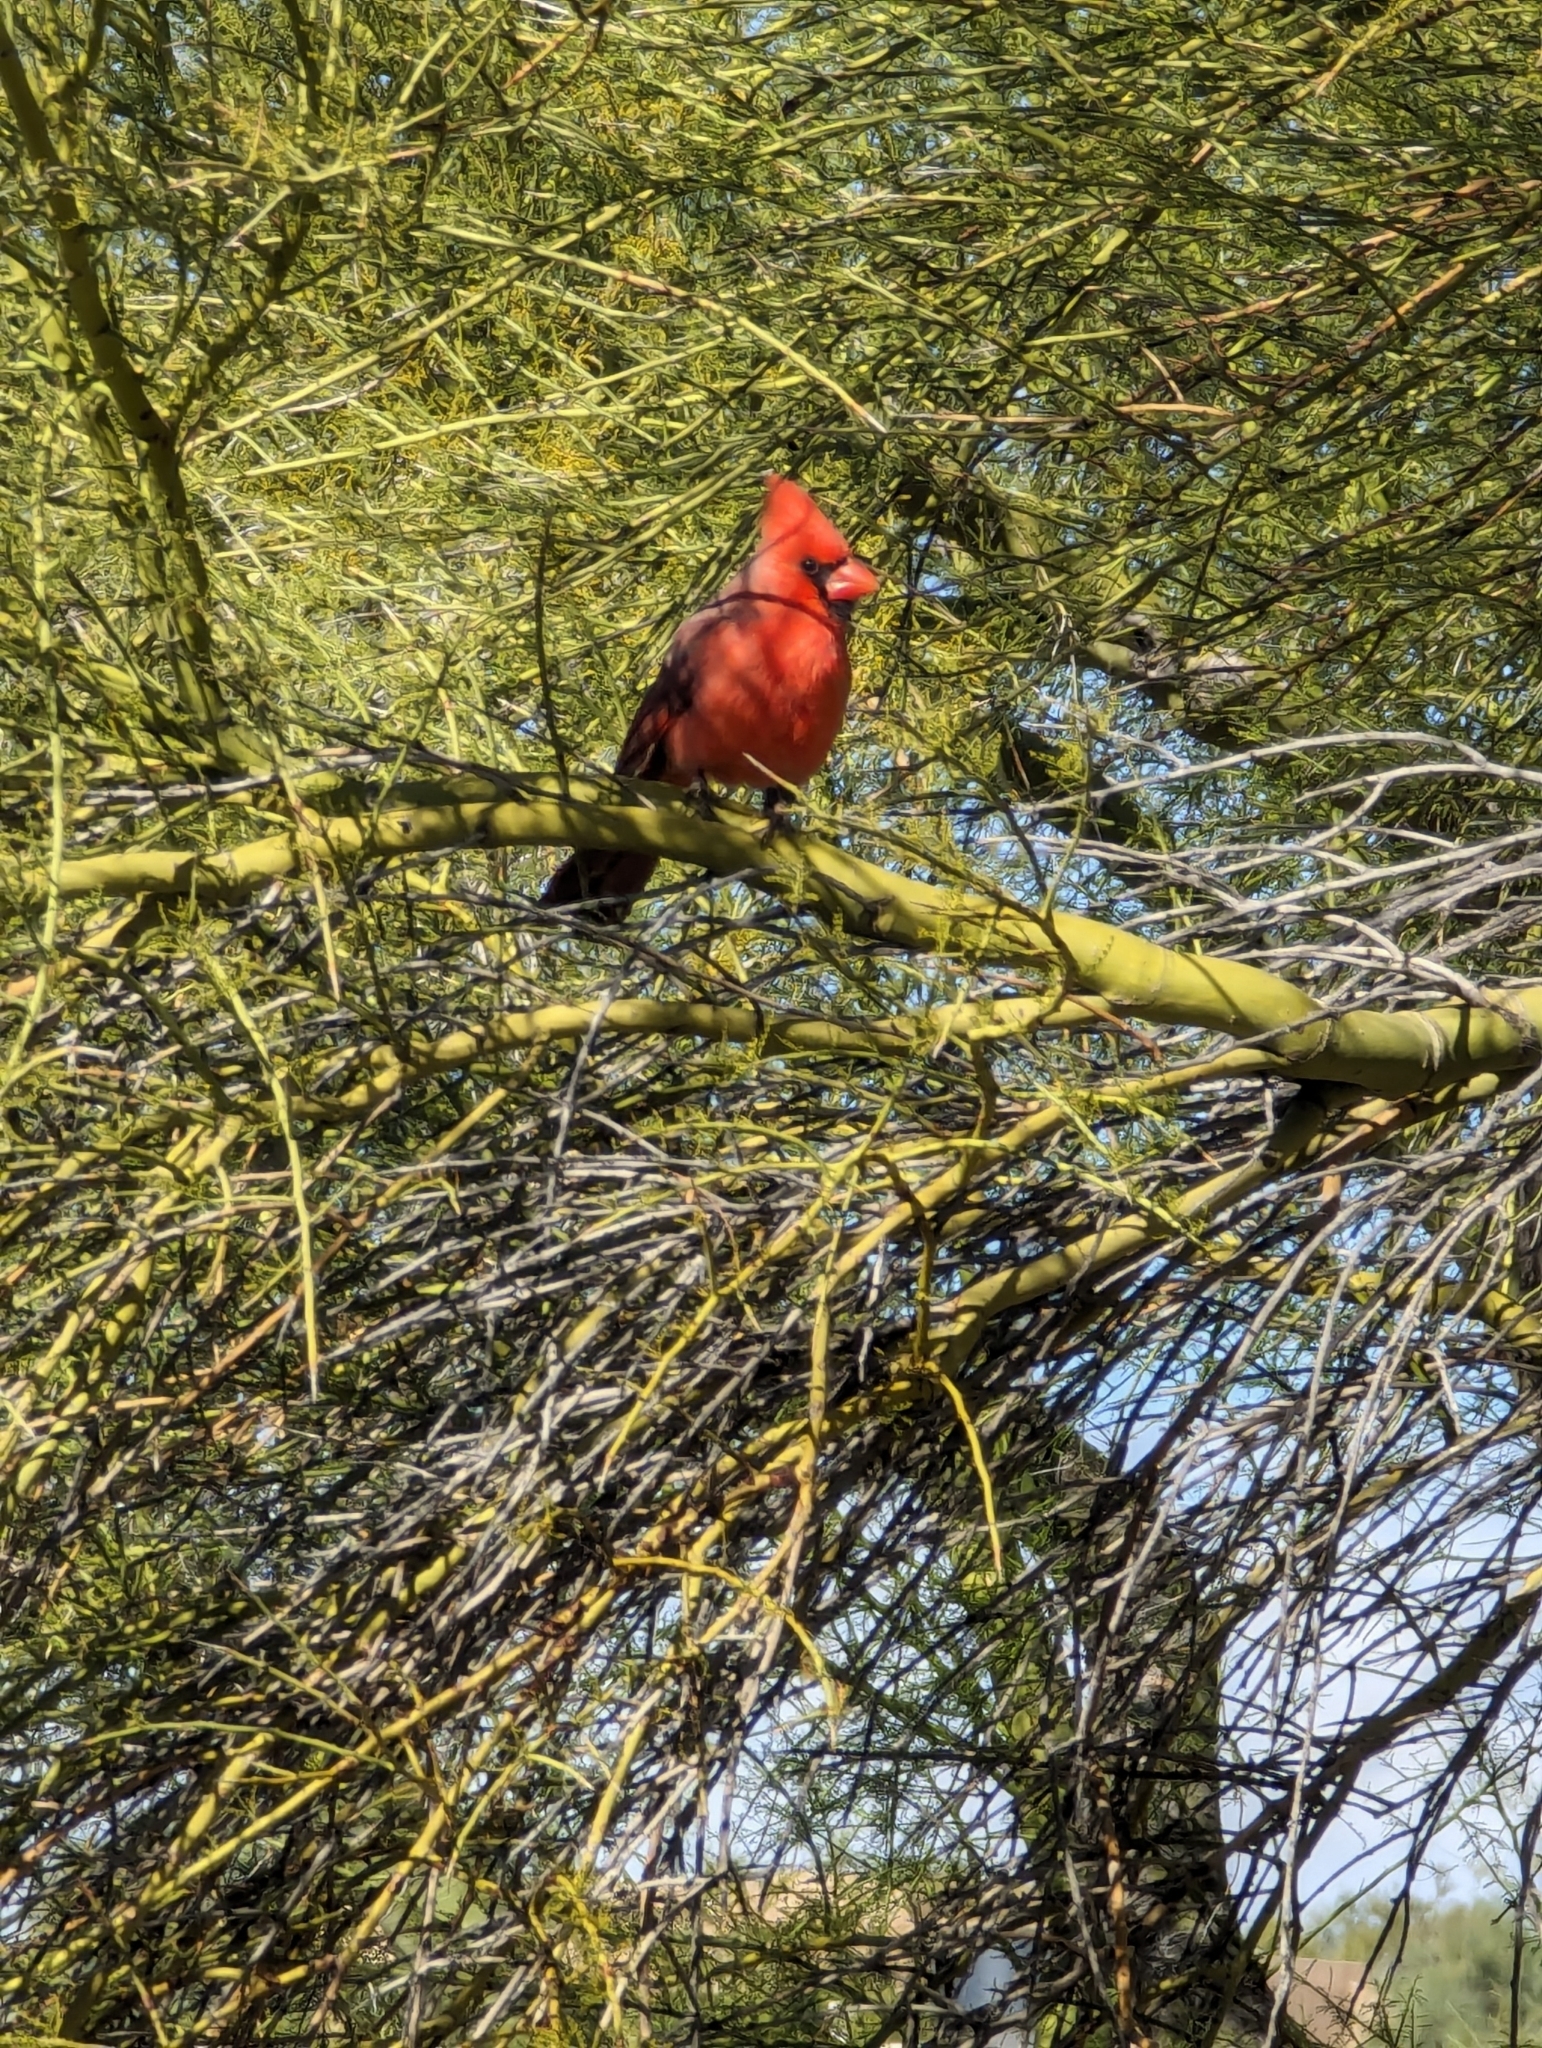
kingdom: Animalia
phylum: Chordata
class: Aves
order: Passeriformes
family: Cardinalidae
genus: Cardinalis
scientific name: Cardinalis cardinalis
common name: Northern cardinal
